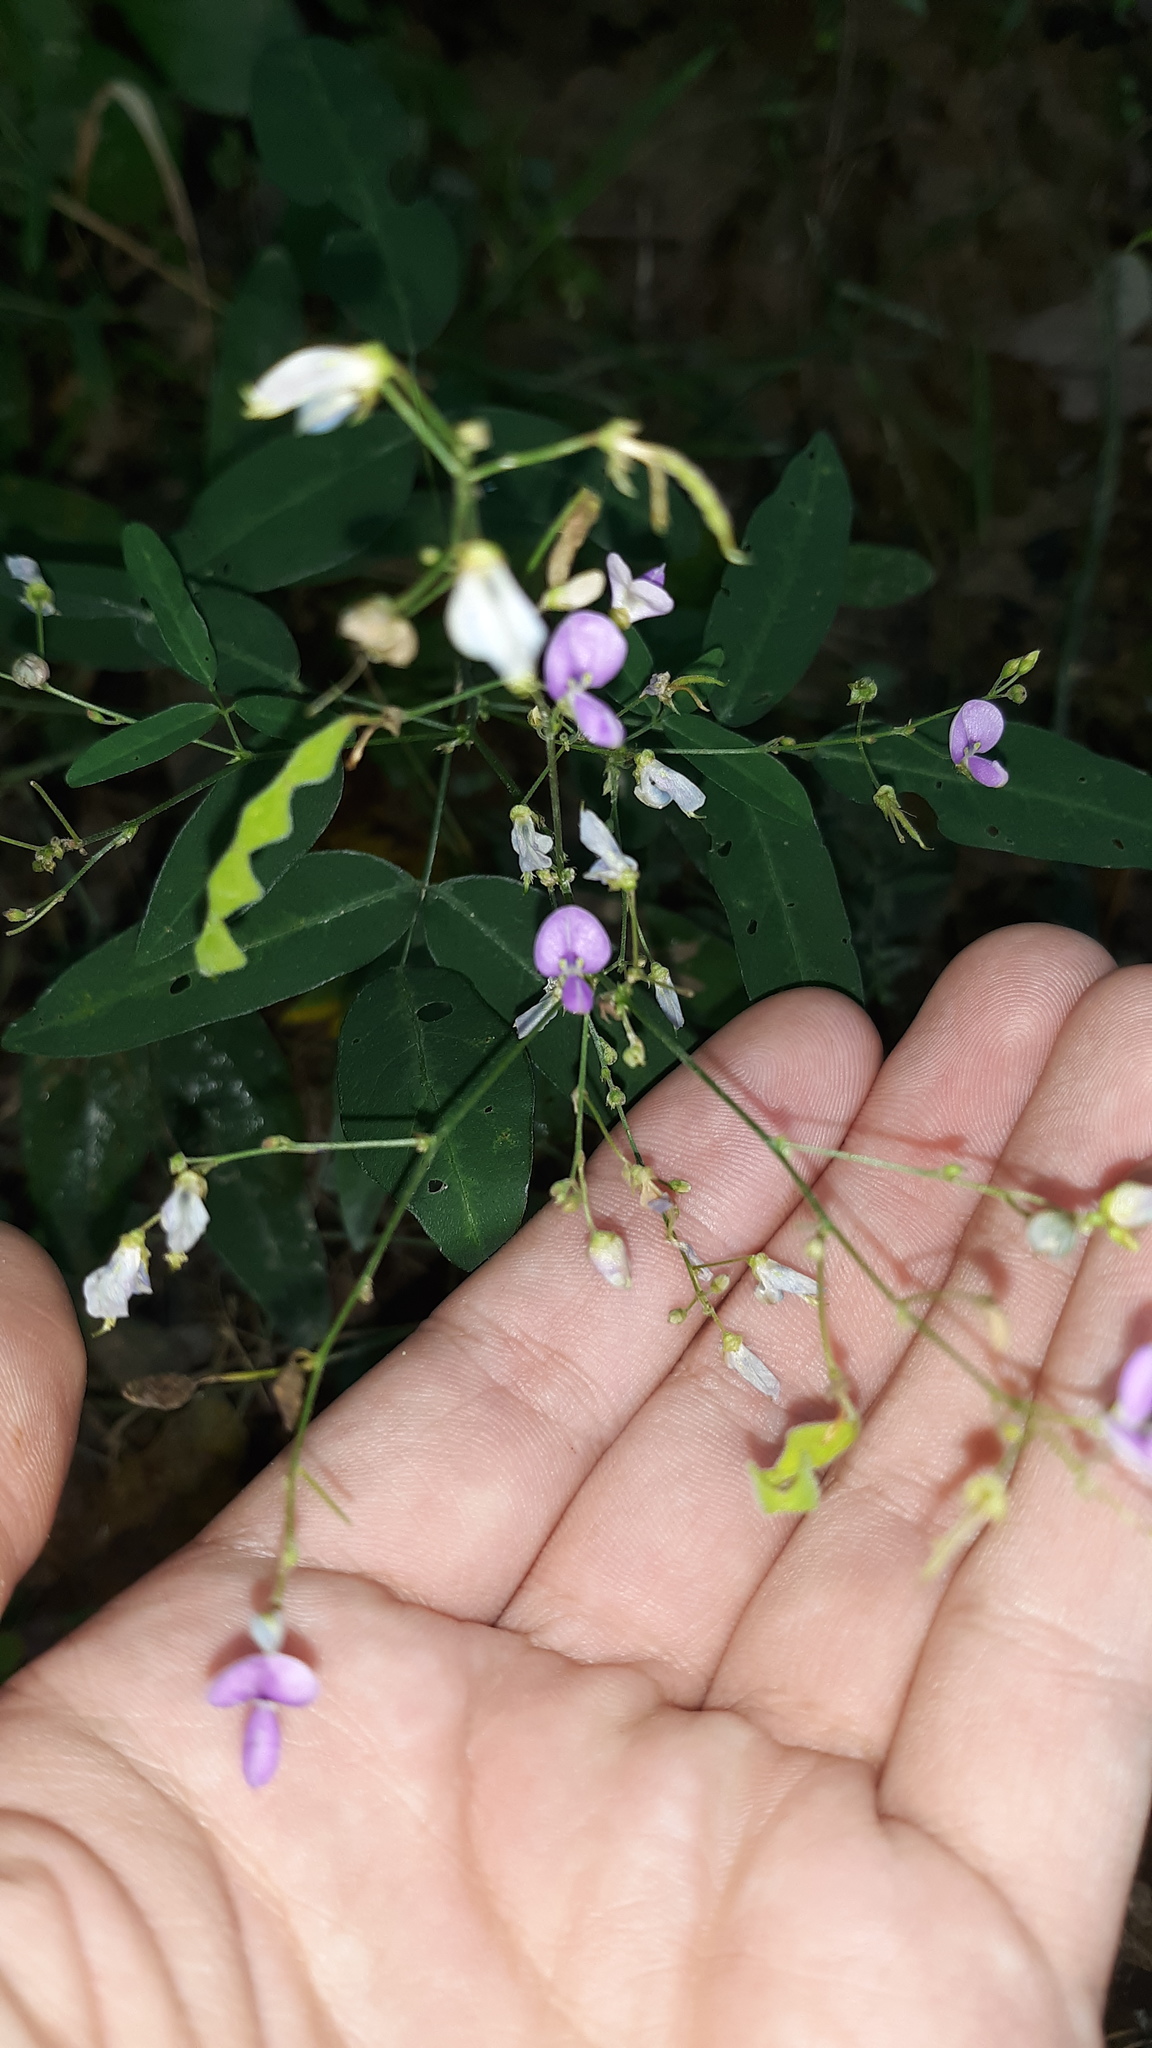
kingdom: Plantae
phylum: Tracheophyta
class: Magnoliopsida
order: Fabales
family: Fabaceae
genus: Desmodium
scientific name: Desmodium paniculatum
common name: Panicled tick-clover
